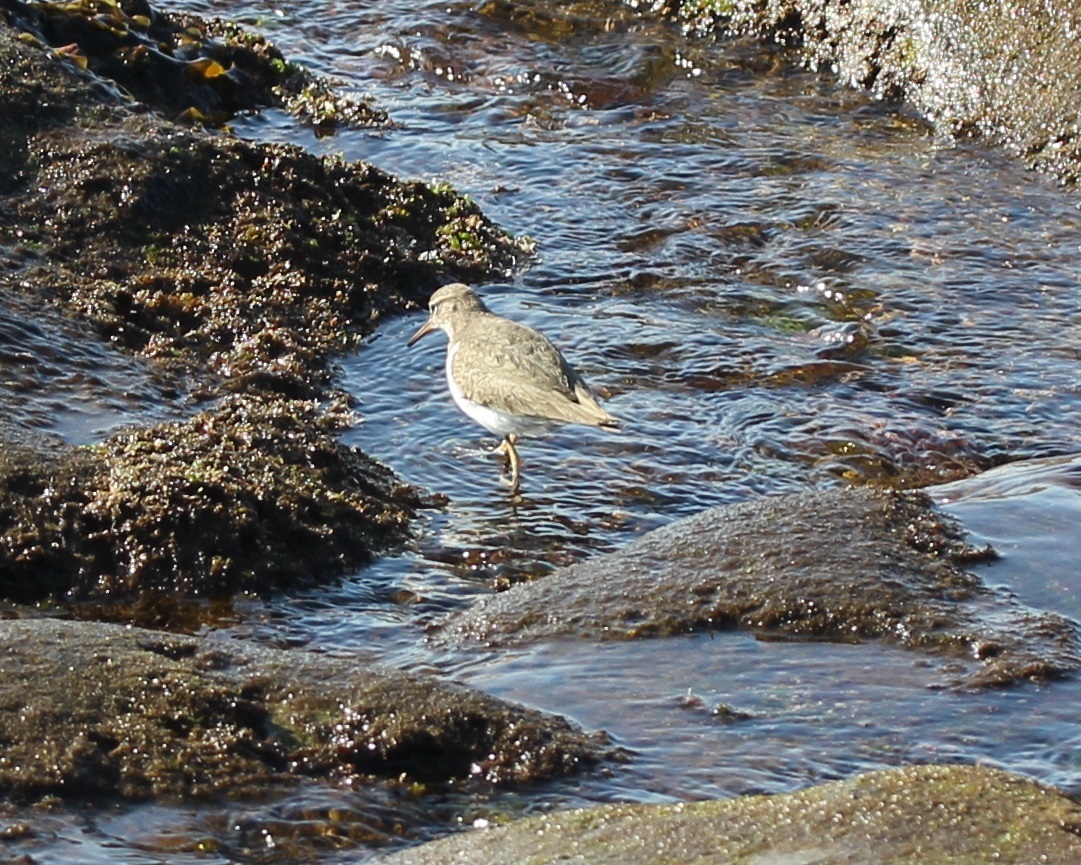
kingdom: Animalia
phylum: Chordata
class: Aves
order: Charadriiformes
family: Scolopacidae
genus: Actitis
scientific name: Actitis macularius
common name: Spotted sandpiper
